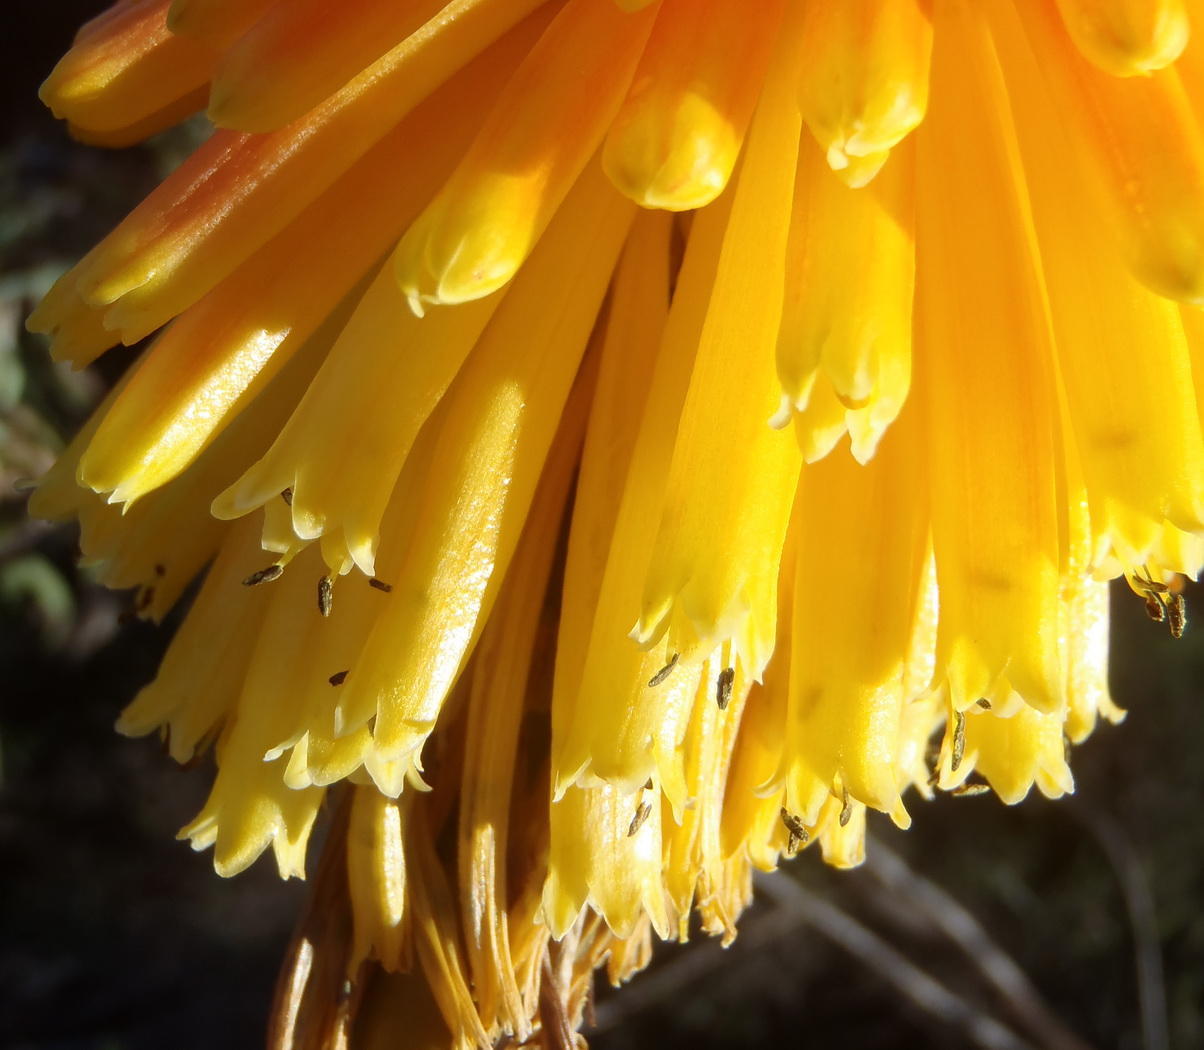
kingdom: Plantae
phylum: Tracheophyta
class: Liliopsida
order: Asparagales
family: Asphodelaceae
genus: Kniphofia
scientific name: Kniphofia uvaria
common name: Red-hot-poker
